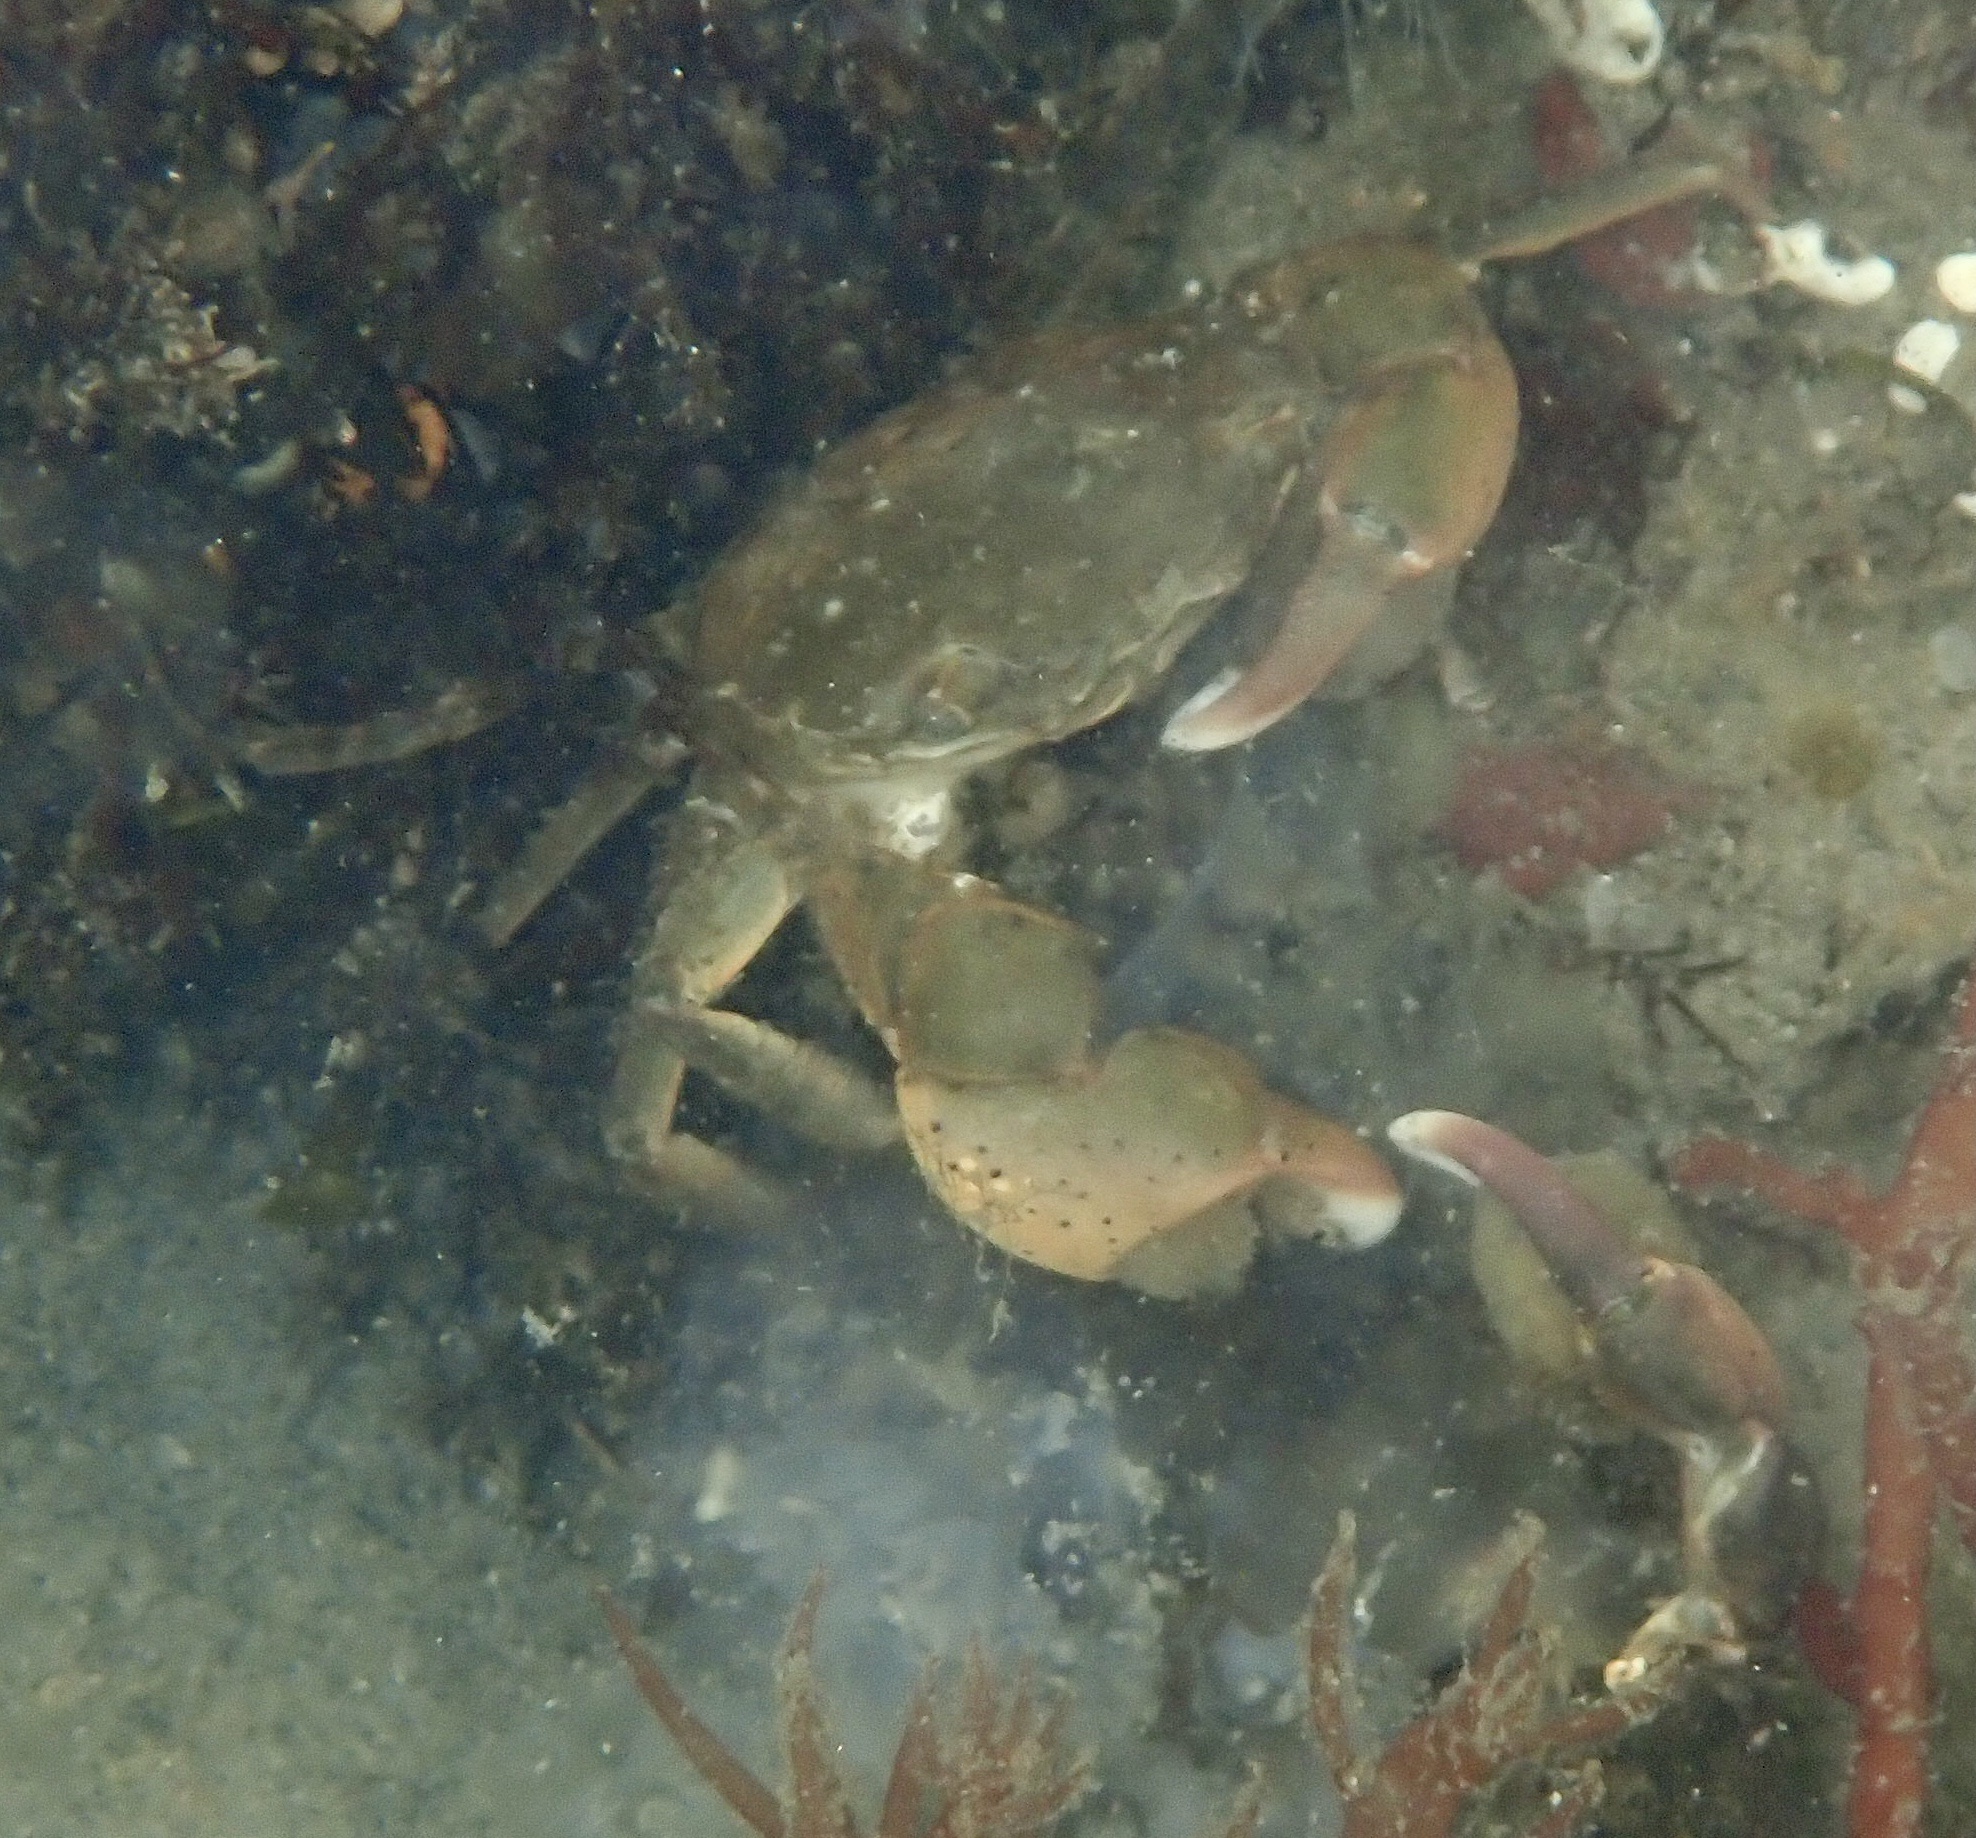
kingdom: Animalia
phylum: Arthropoda
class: Malacostraca
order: Decapoda
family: Varunidae
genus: Hemigrapsus
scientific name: Hemigrapsus takanoi
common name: Asian brush crab
